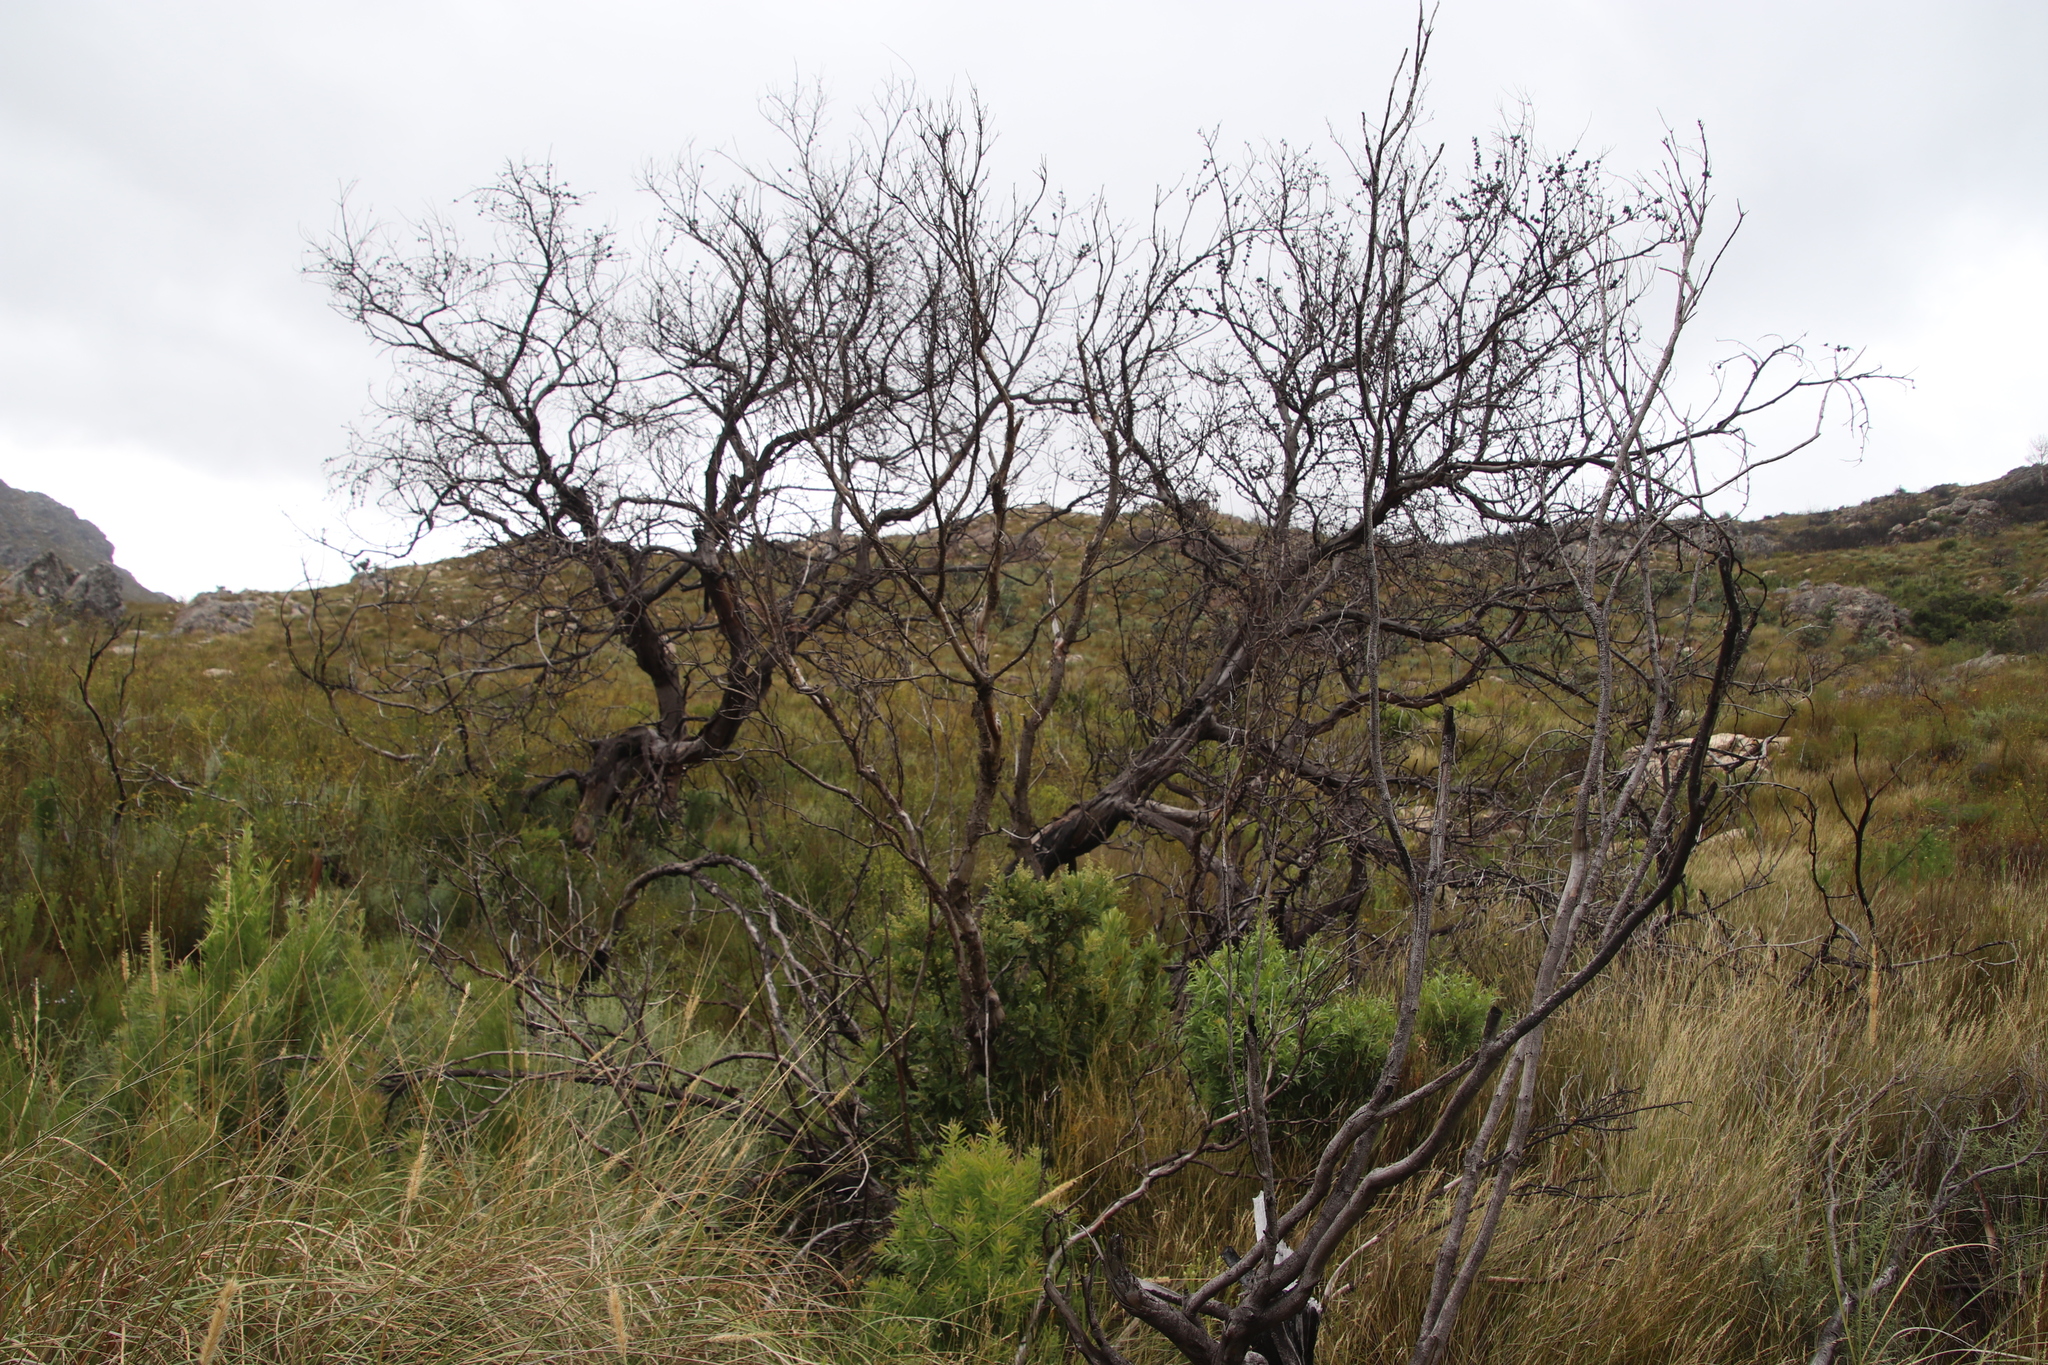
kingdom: Plantae
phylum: Tracheophyta
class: Magnoliopsida
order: Fabales
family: Fabaceae
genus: Acacia
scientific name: Acacia longifolia
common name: Sydney golden wattle
